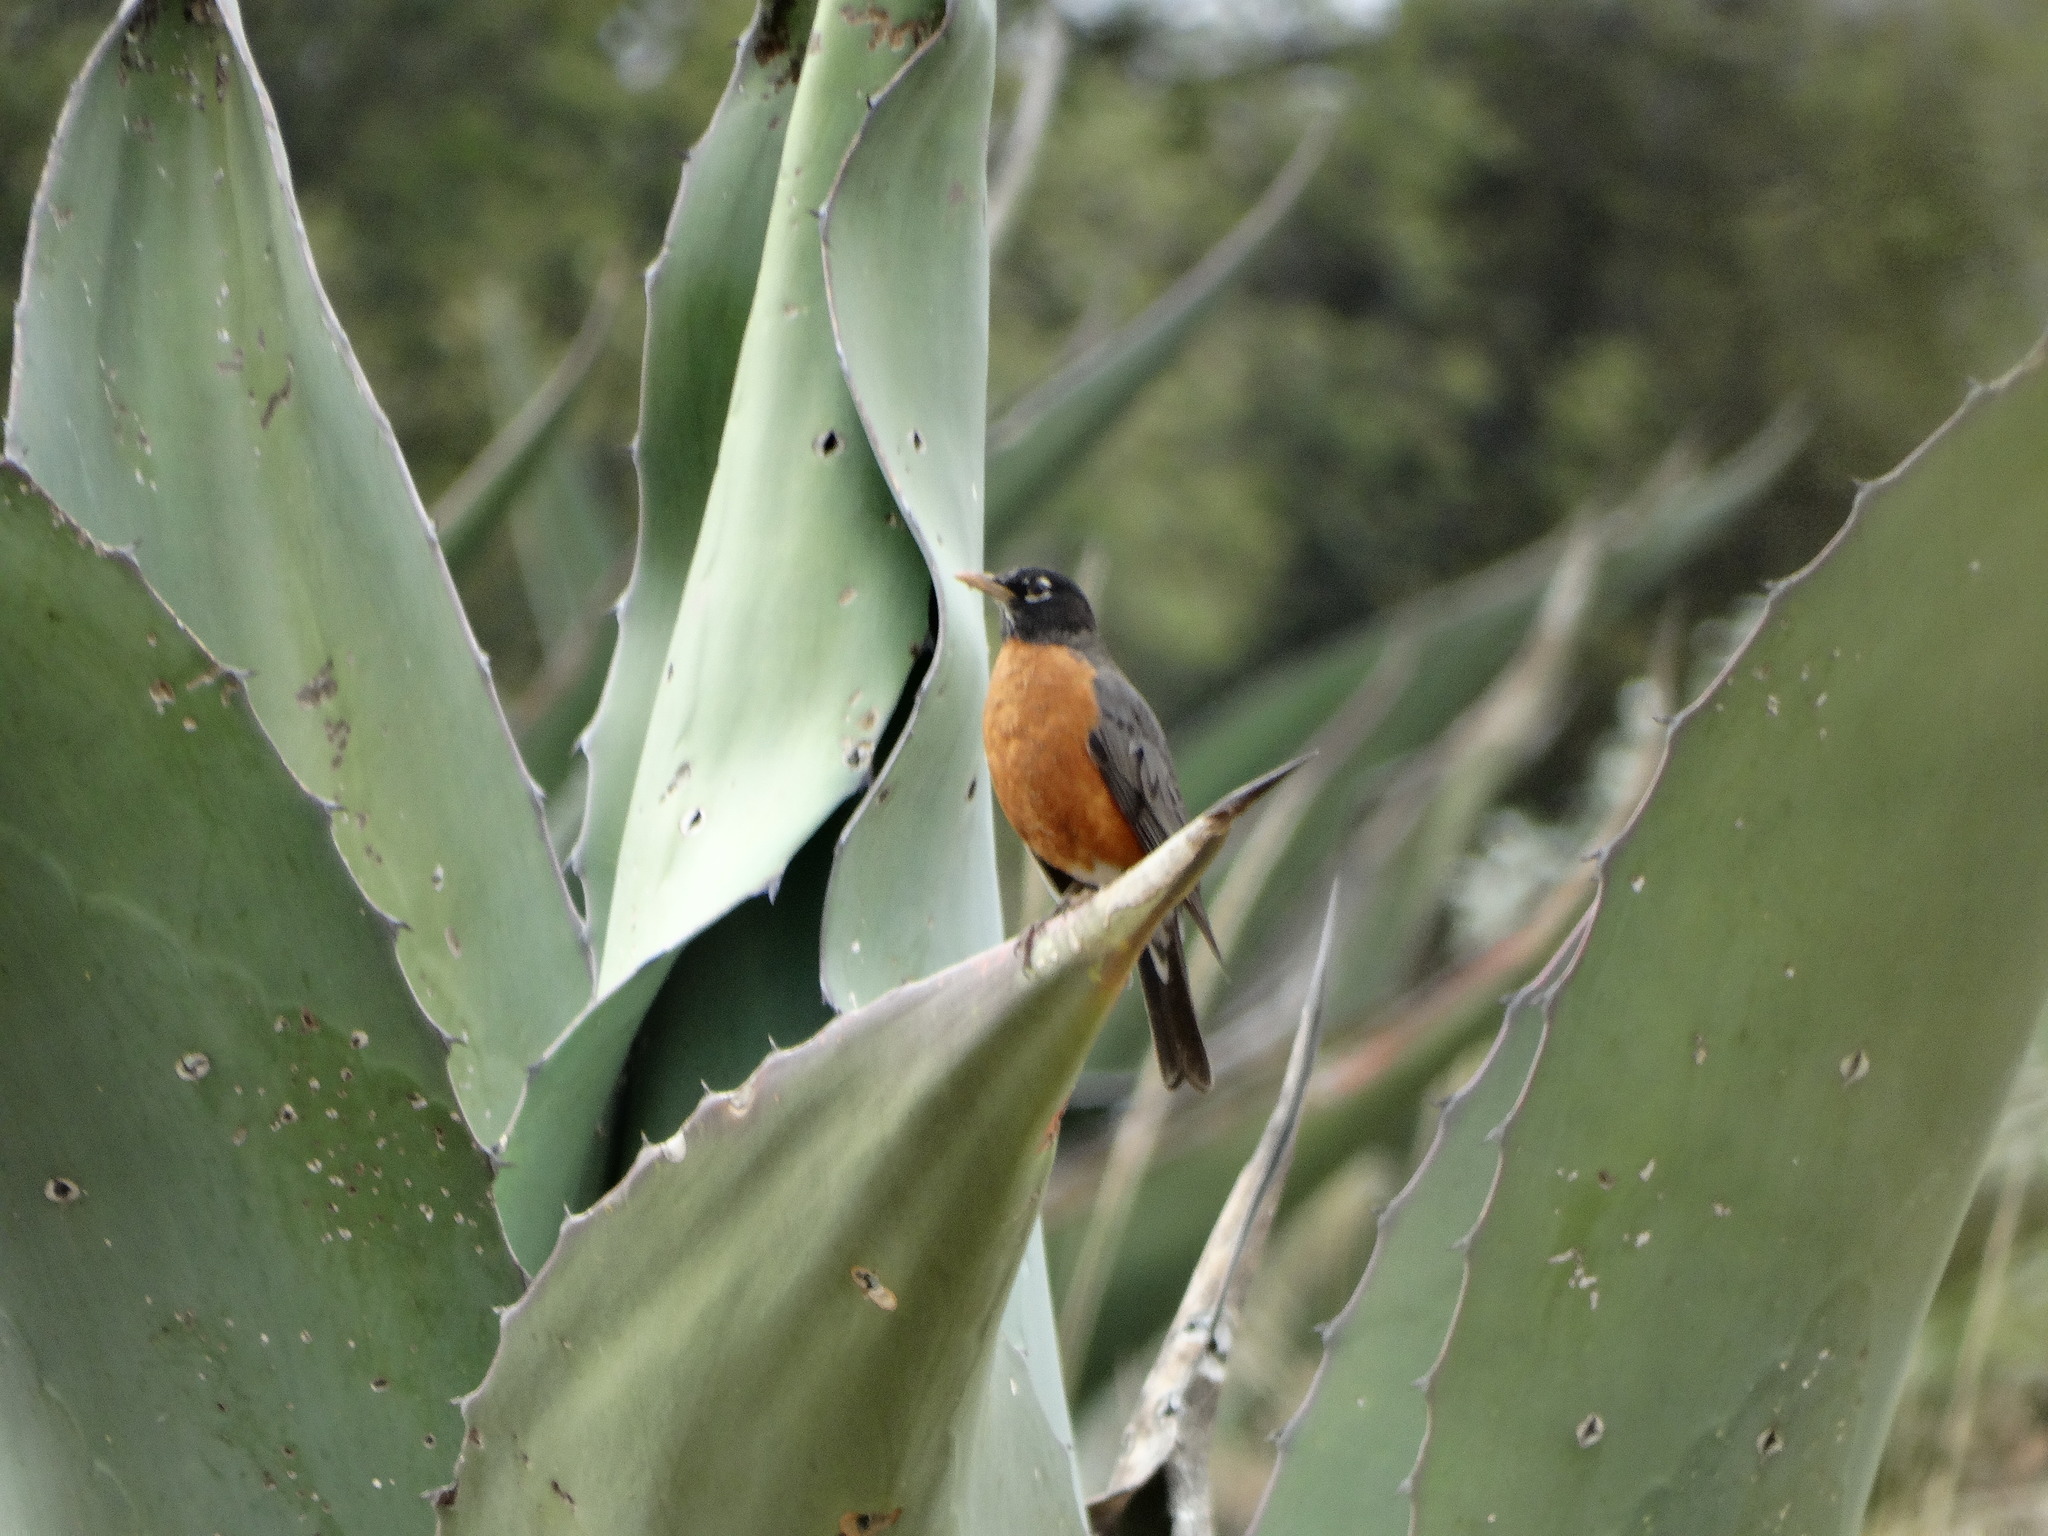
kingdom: Animalia
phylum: Chordata
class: Aves
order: Passeriformes
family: Turdidae
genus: Turdus
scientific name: Turdus migratorius
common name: American robin
